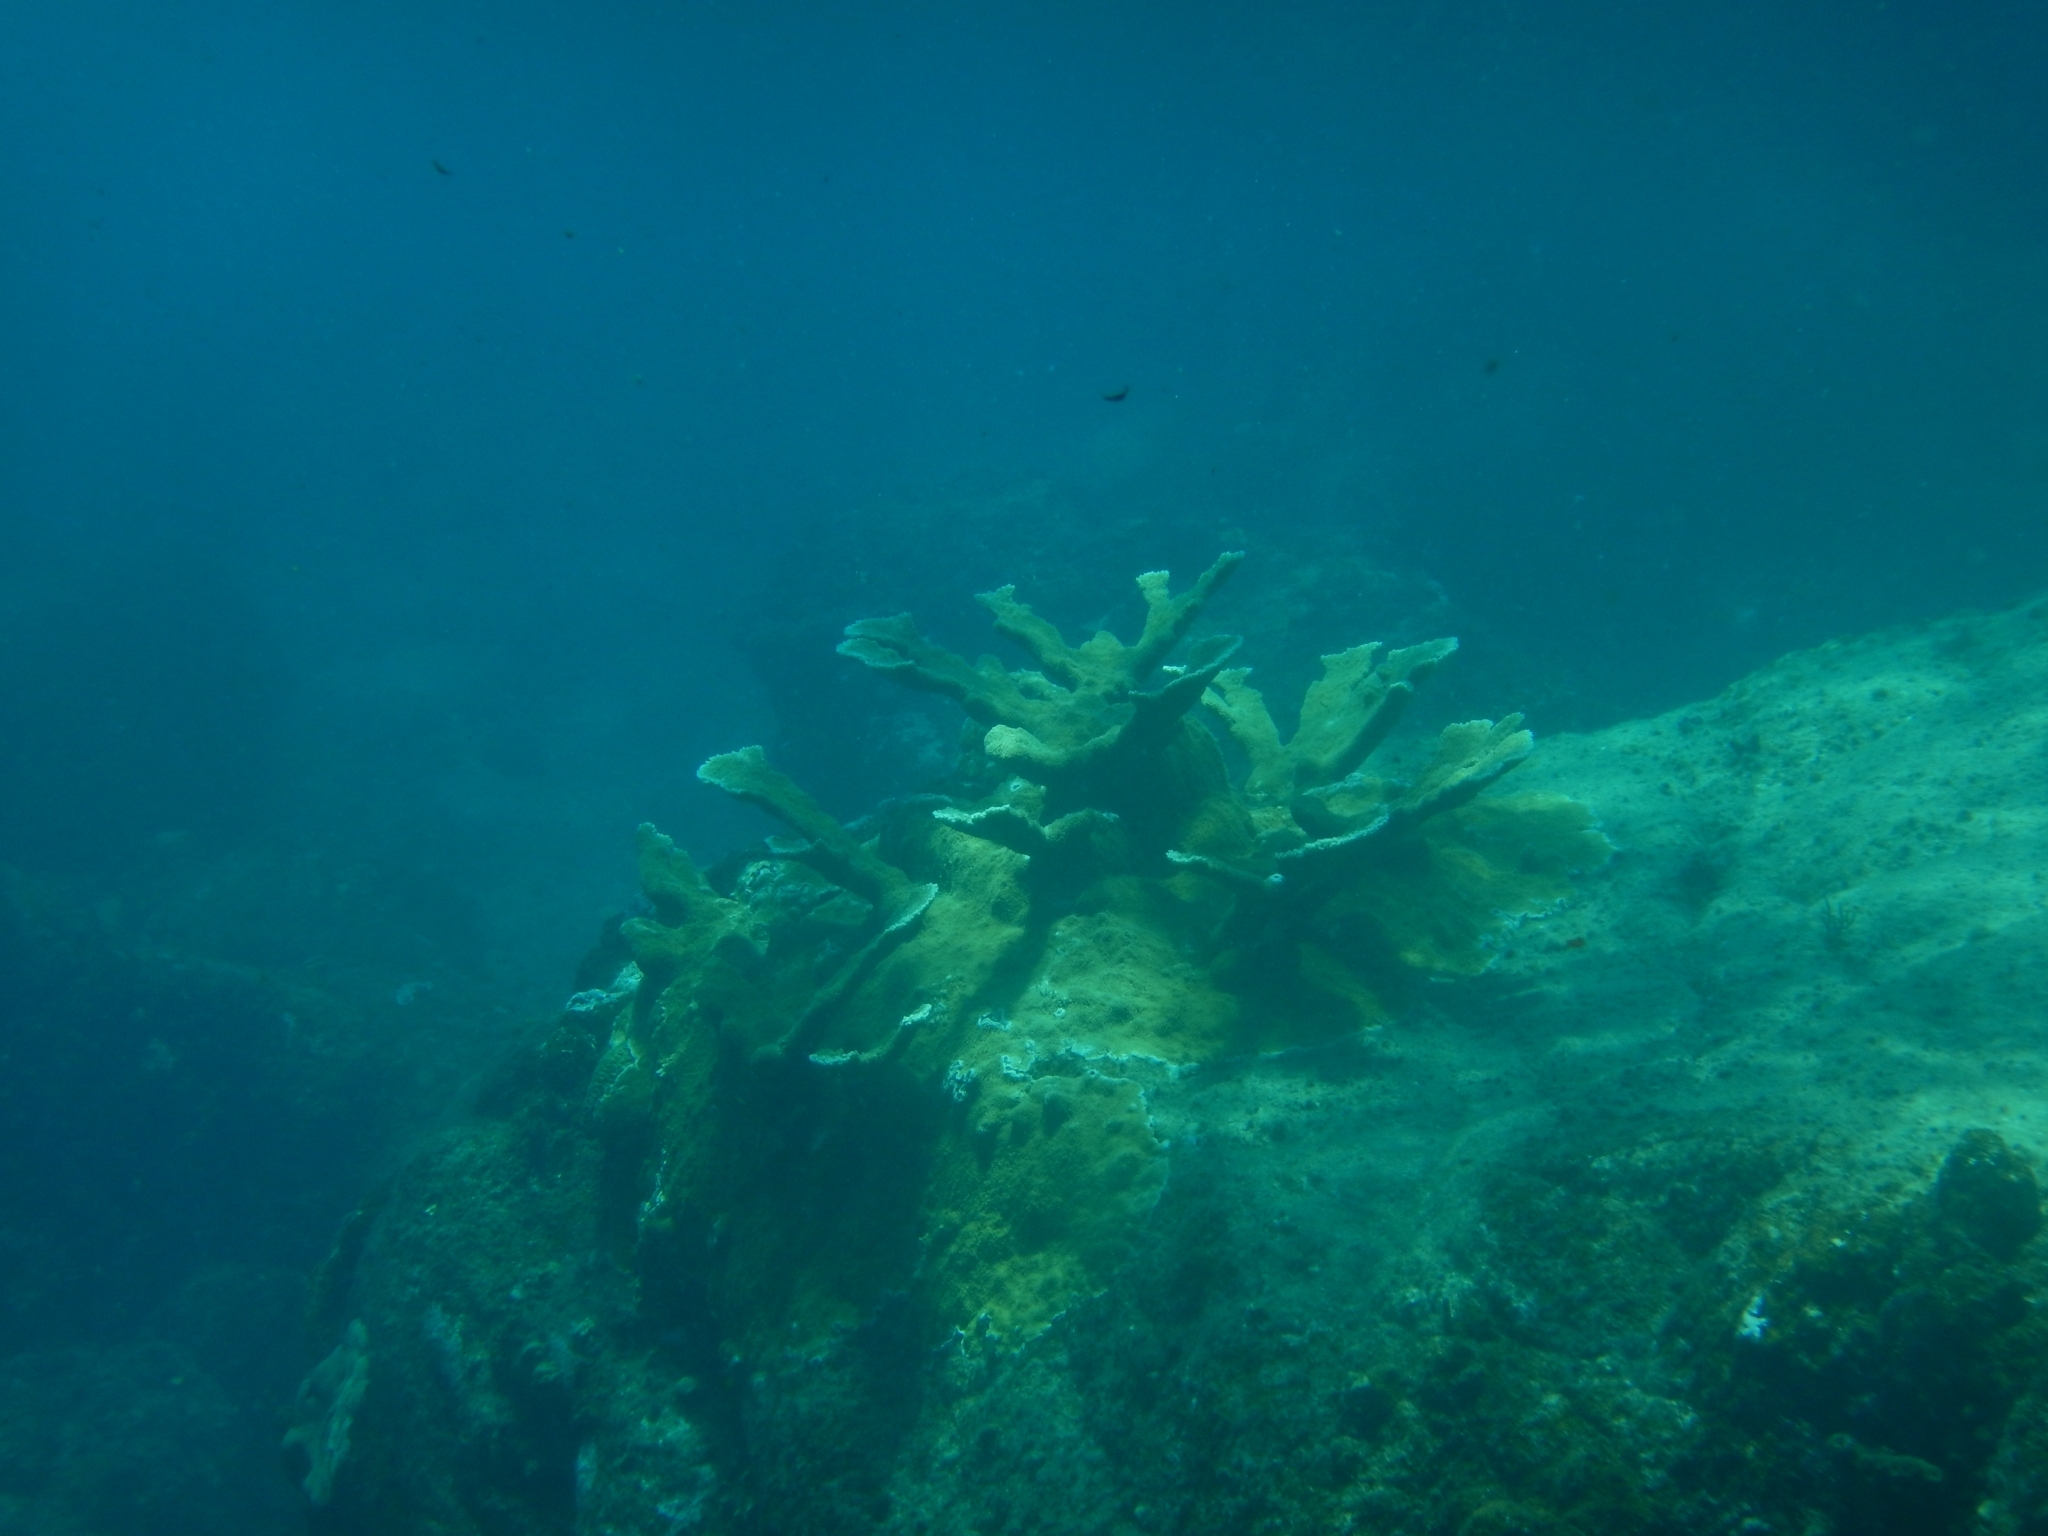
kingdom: Animalia
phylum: Cnidaria
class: Anthozoa
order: Scleractinia
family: Acroporidae
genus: Acropora
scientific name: Acropora palmata
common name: Elkhorn coral
